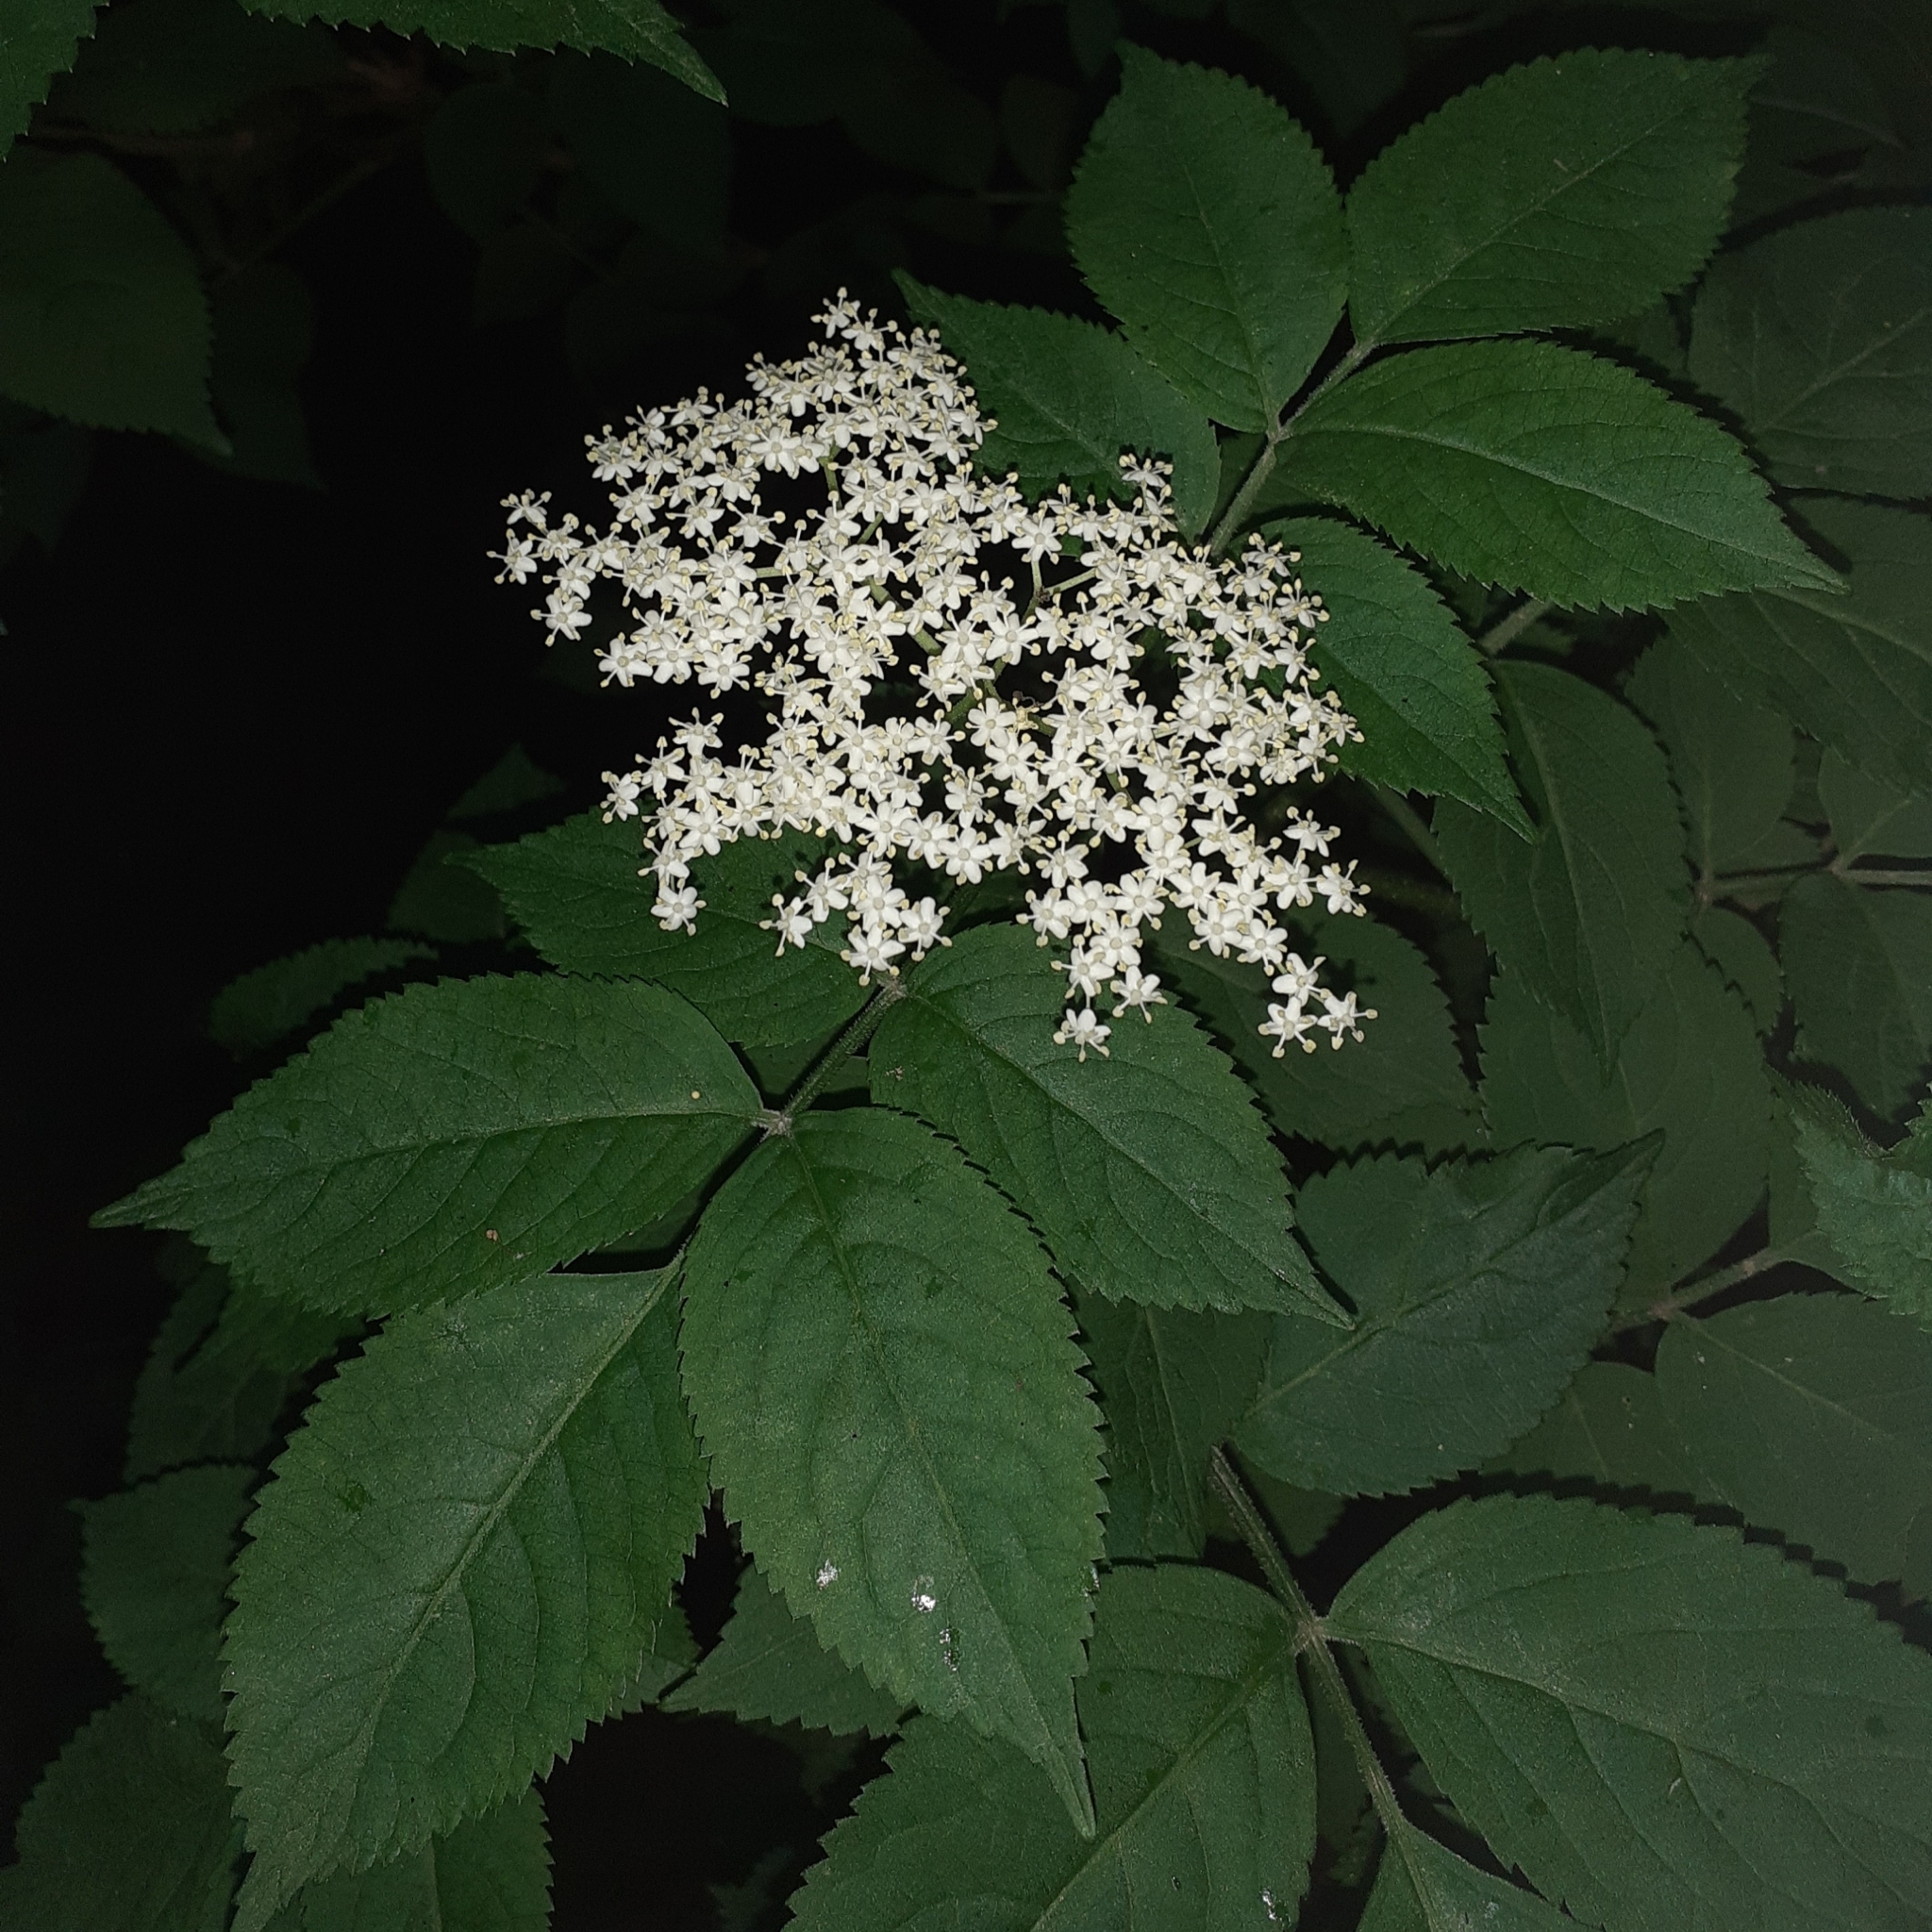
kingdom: Plantae
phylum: Tracheophyta
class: Magnoliopsida
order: Dipsacales
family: Viburnaceae
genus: Sambucus
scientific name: Sambucus nigra
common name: Elder
